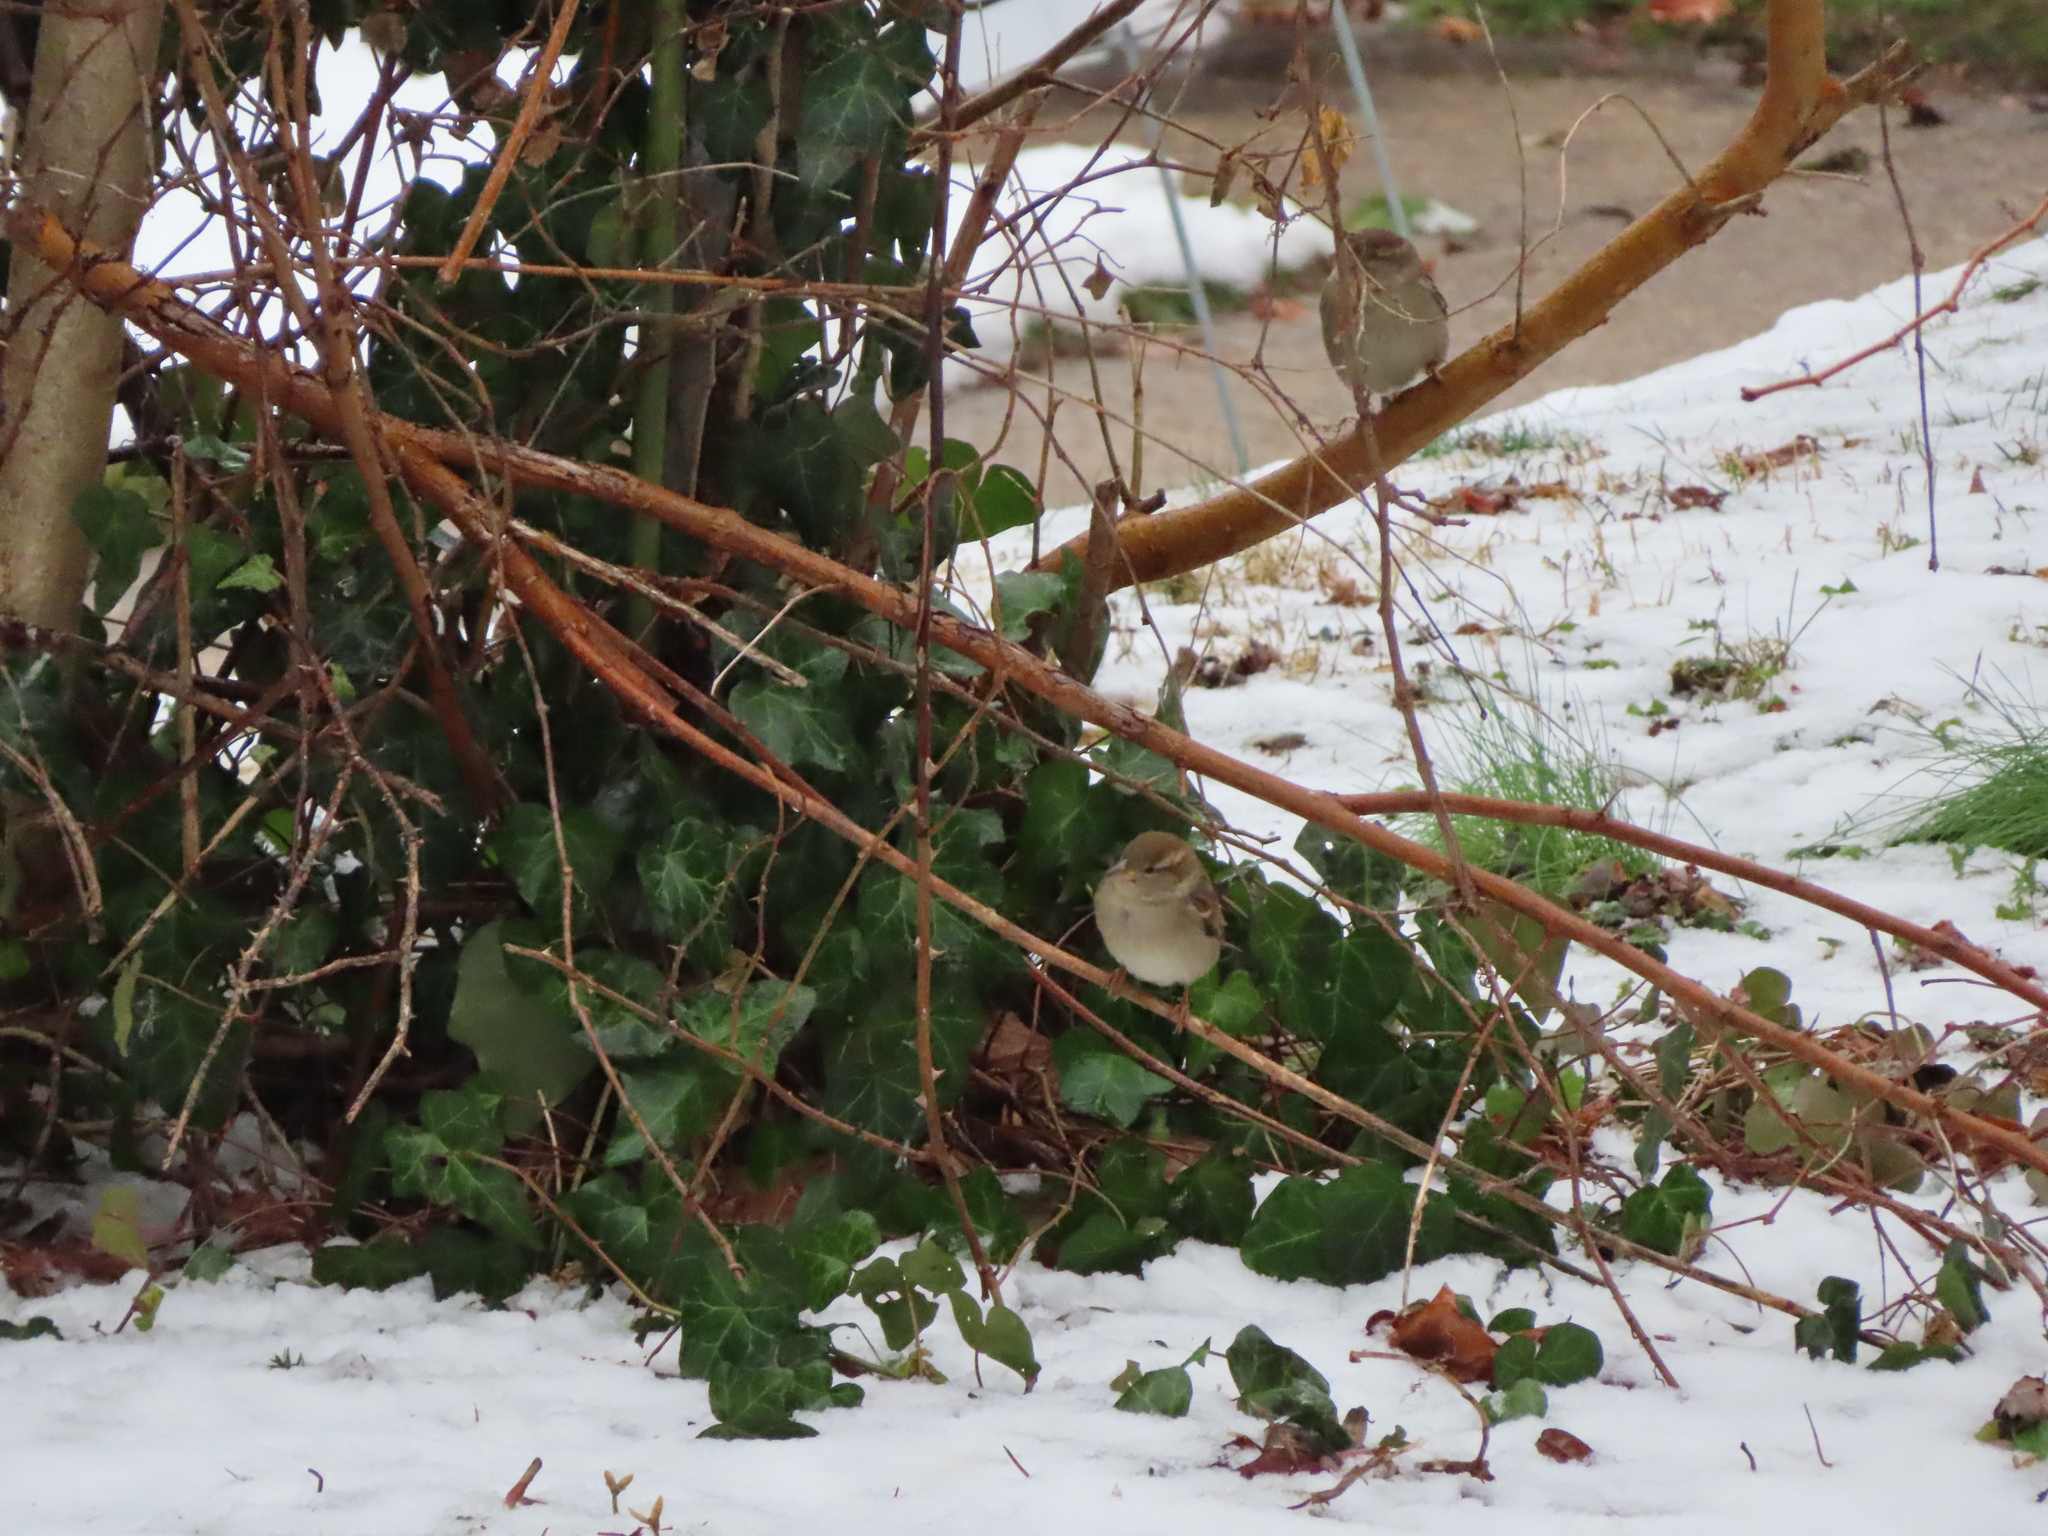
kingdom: Animalia
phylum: Chordata
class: Aves
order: Passeriformes
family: Passeridae
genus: Passer
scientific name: Passer domesticus
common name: House sparrow
